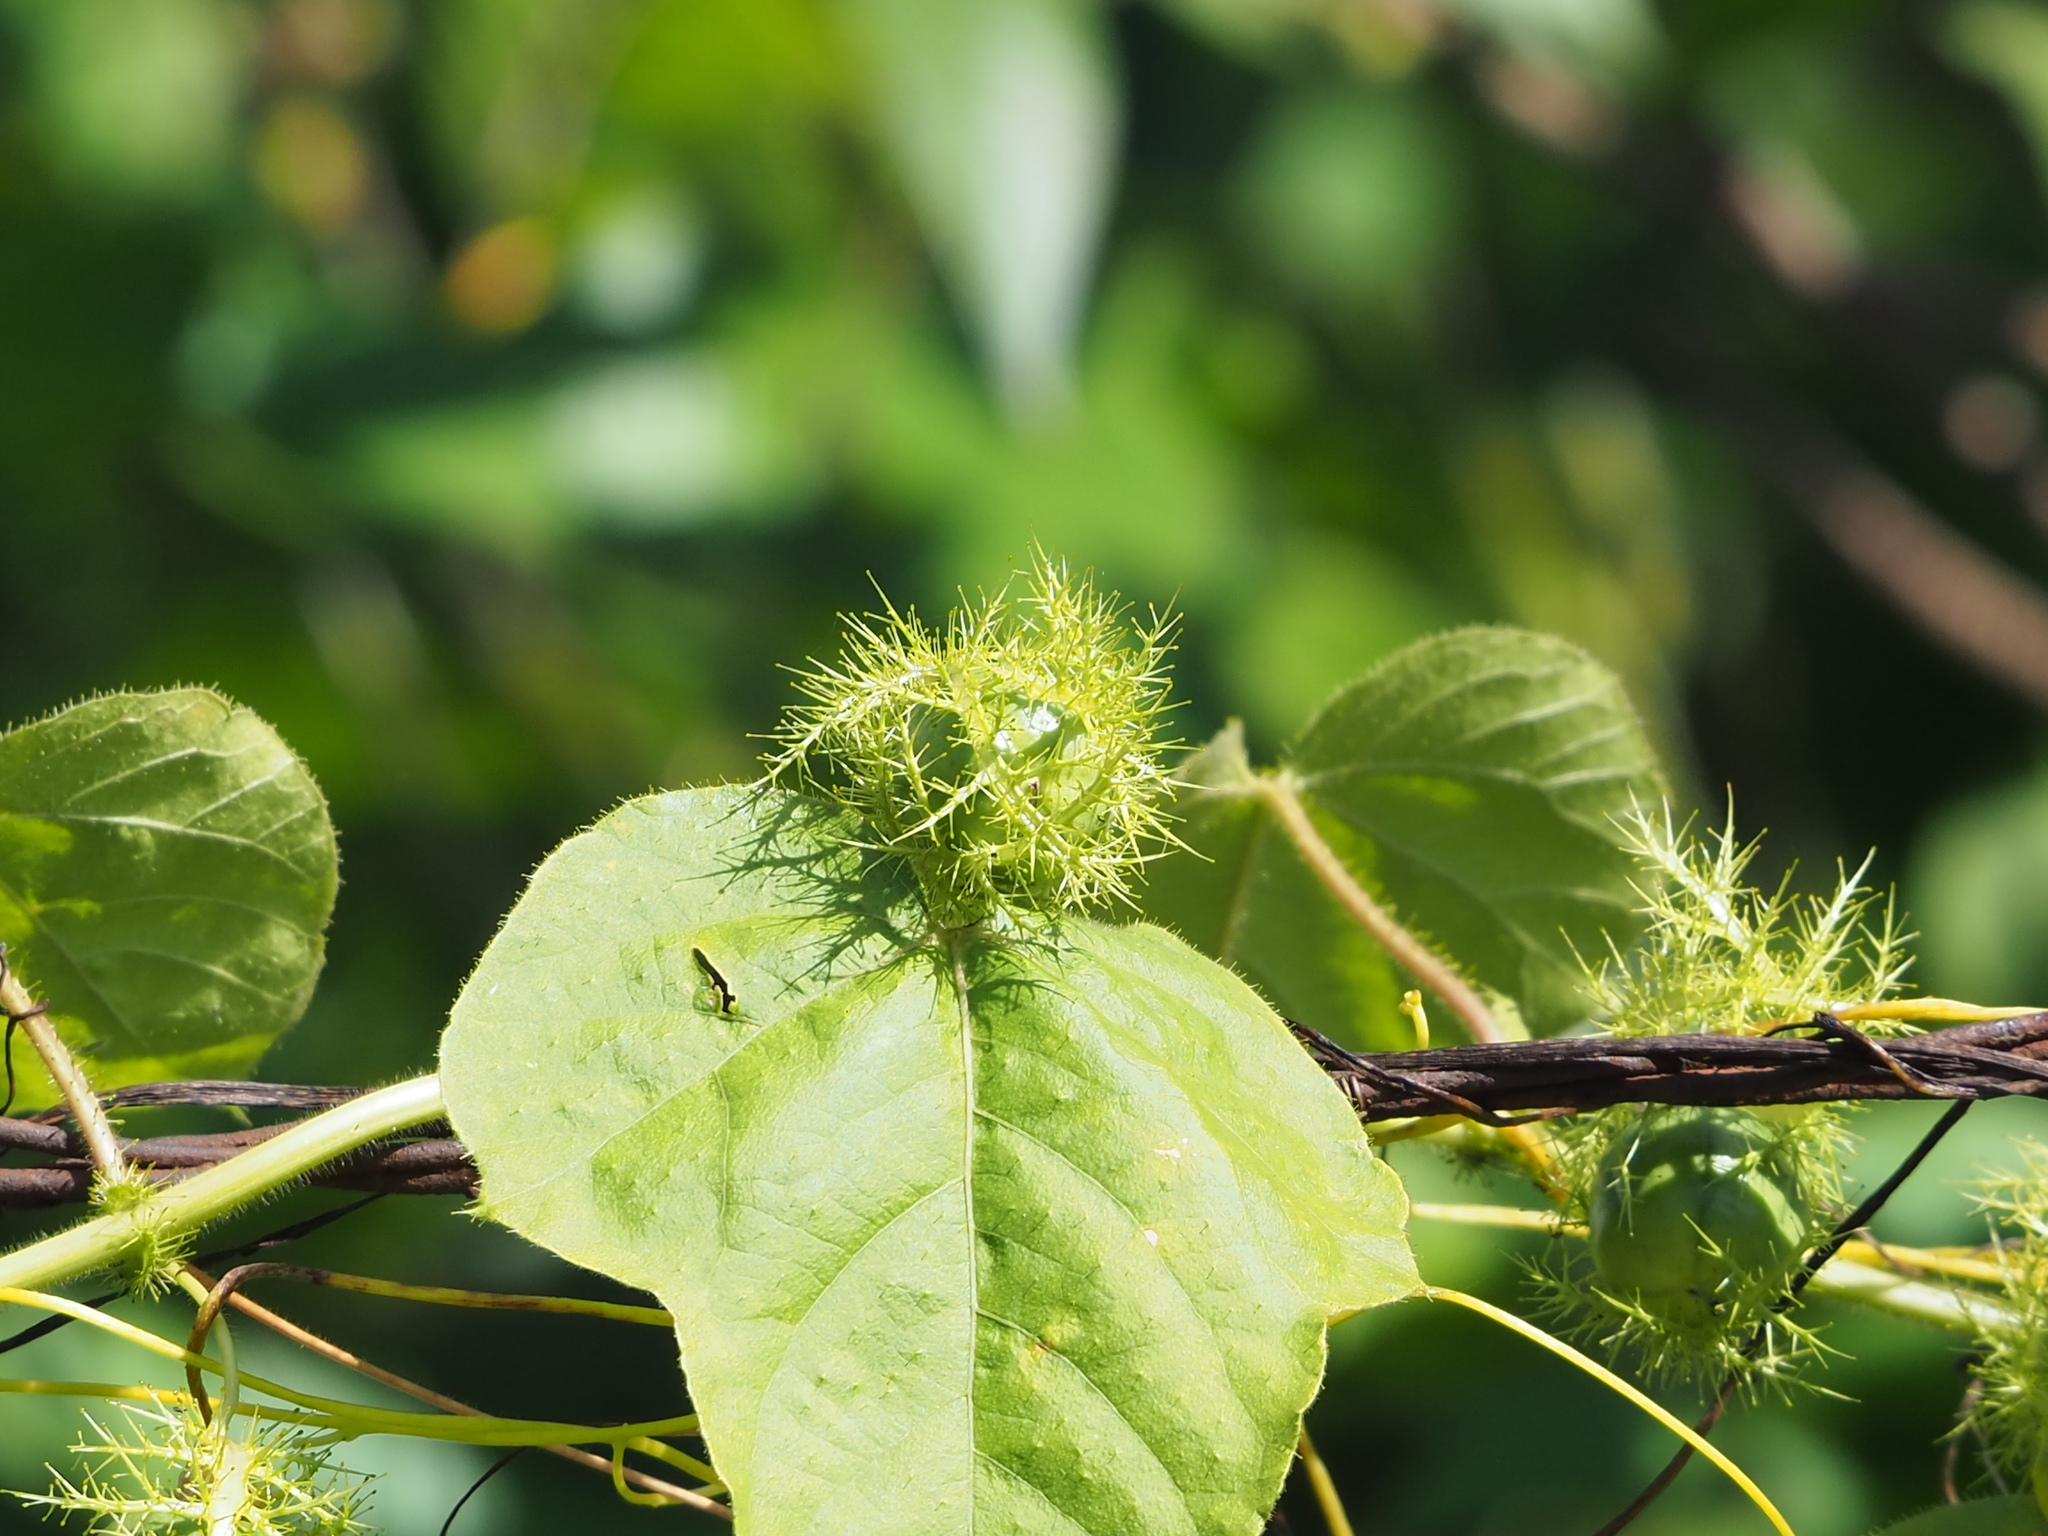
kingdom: Plantae
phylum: Tracheophyta
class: Magnoliopsida
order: Malpighiales
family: Passifloraceae
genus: Passiflora
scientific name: Passiflora vesicaria
